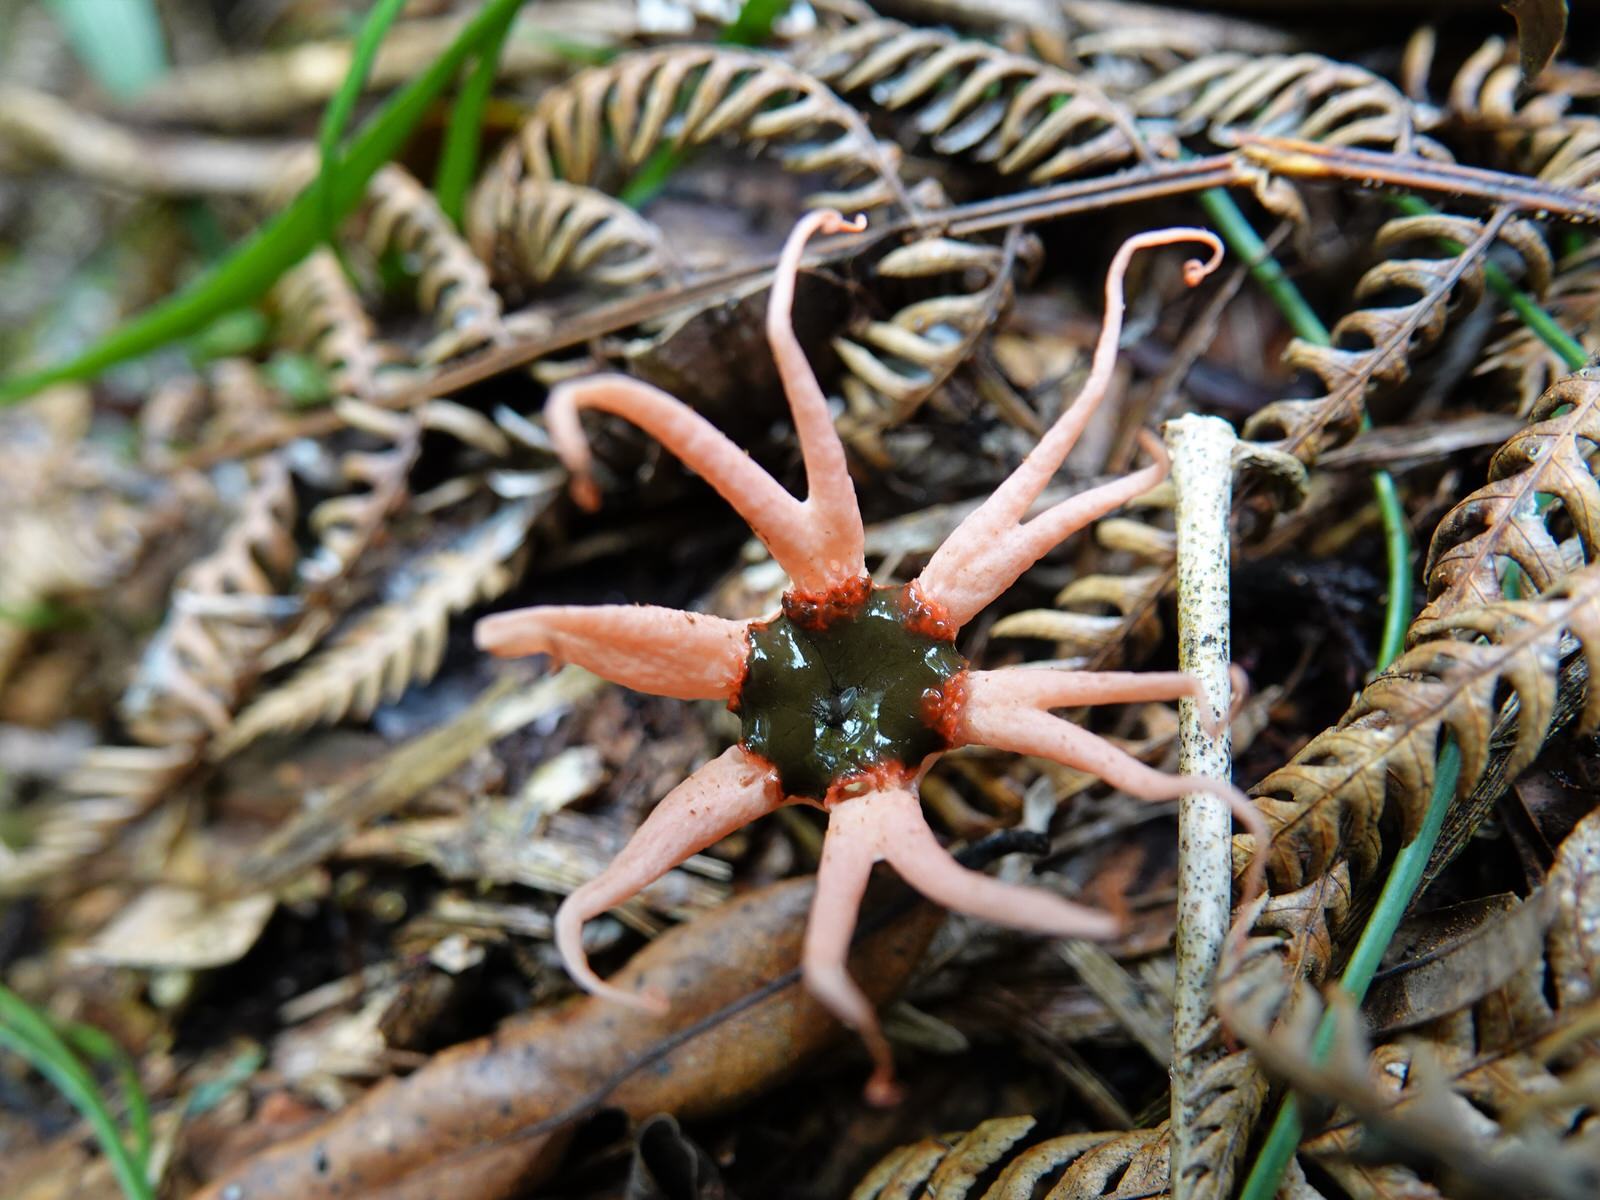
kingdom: Fungi
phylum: Basidiomycota
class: Agaricomycetes
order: Phallales
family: Phallaceae
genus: Aseroe
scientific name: Aseroe rubra
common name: Starfish fungus
